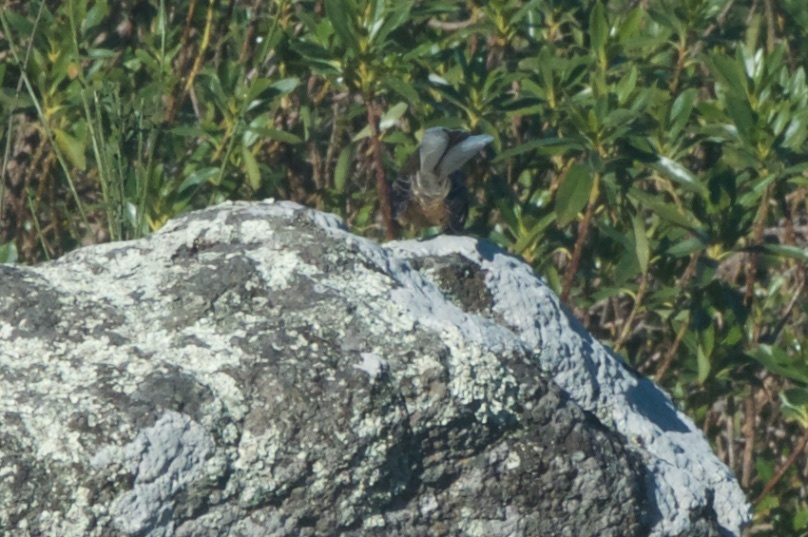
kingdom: Animalia
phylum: Chordata
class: Aves
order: Passeriformes
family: Rhipiduridae
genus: Rhipidura
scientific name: Rhipidura fuliginosa
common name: New zealand fantail
